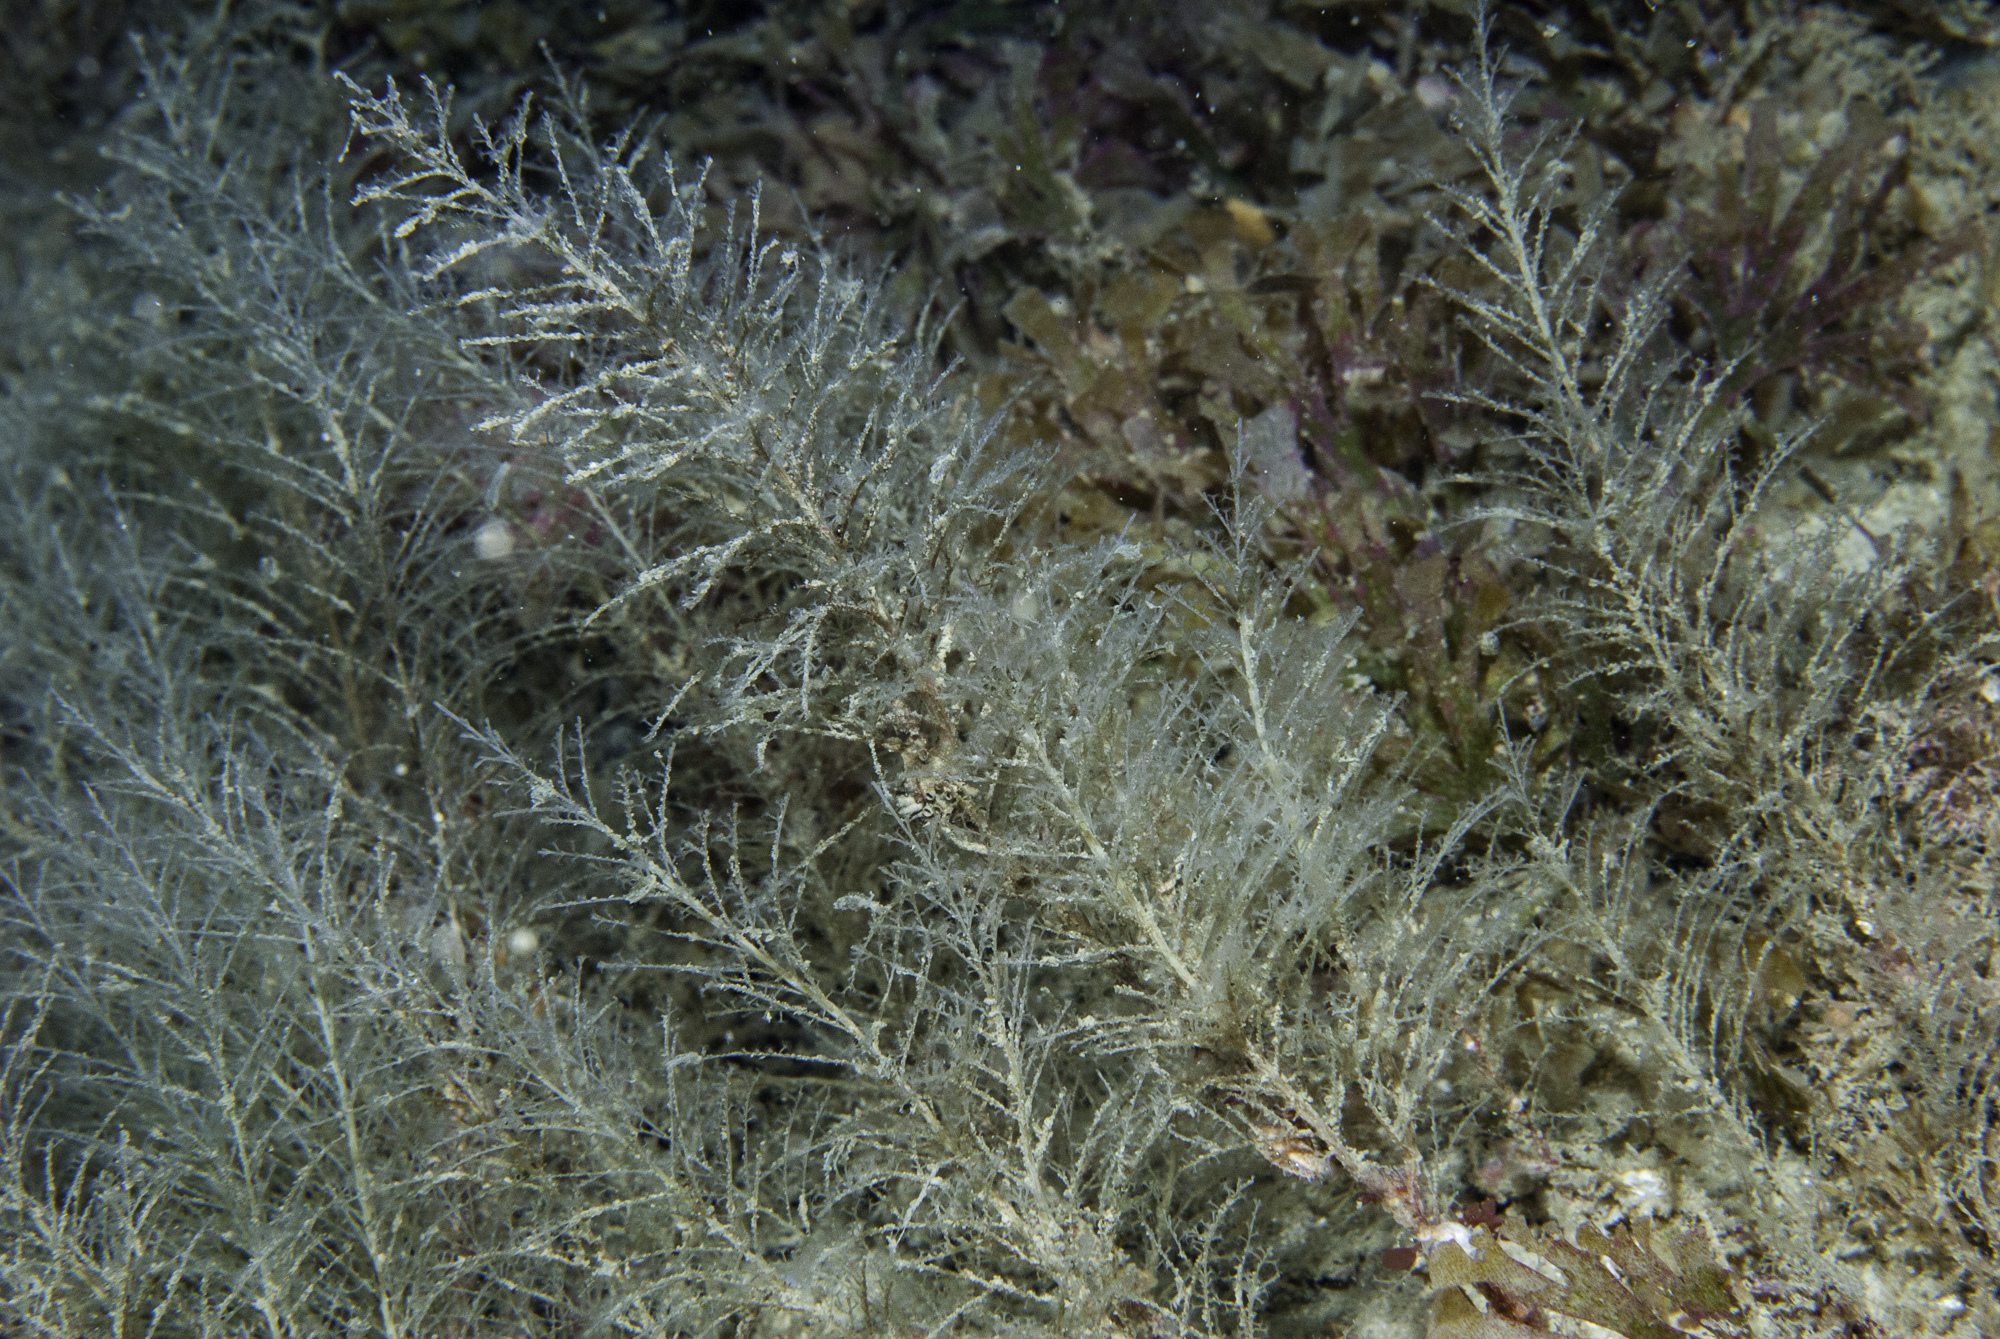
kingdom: Animalia
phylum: Cnidaria
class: Hydrozoa
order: Leptothecata
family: Haleciidae
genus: Halecium
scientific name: Halecium plumosum
